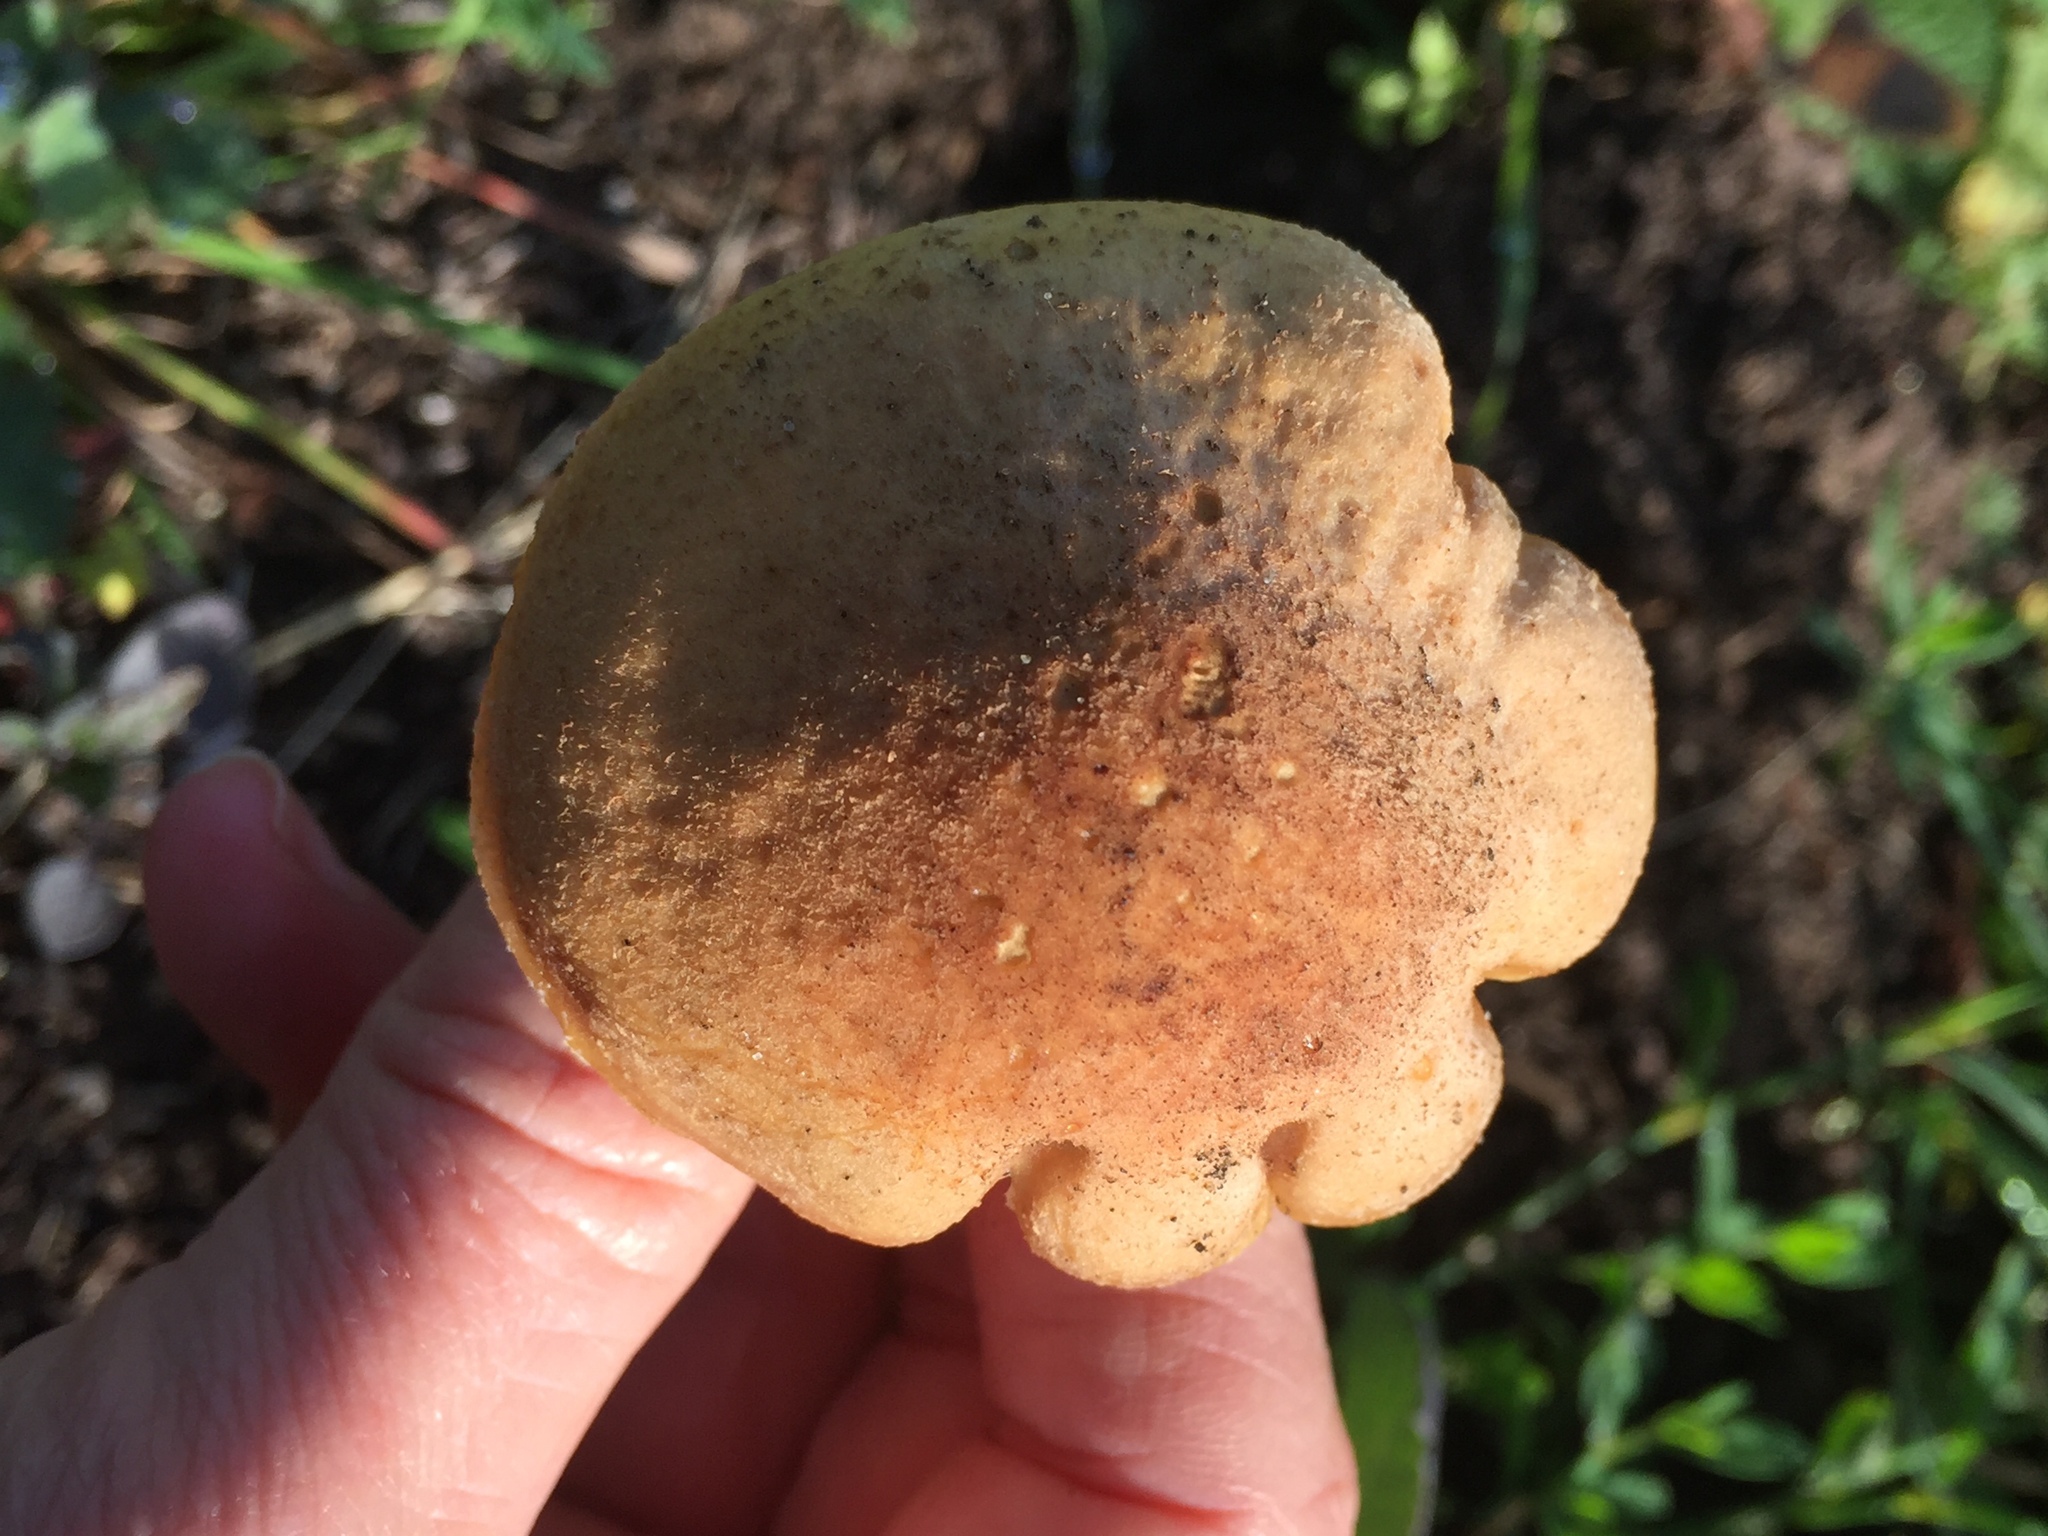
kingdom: Fungi
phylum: Basidiomycota
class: Agaricomycetes
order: Agaricales
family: Physalacriaceae
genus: Armillaria
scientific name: Armillaria mellea
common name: Honey fungus
